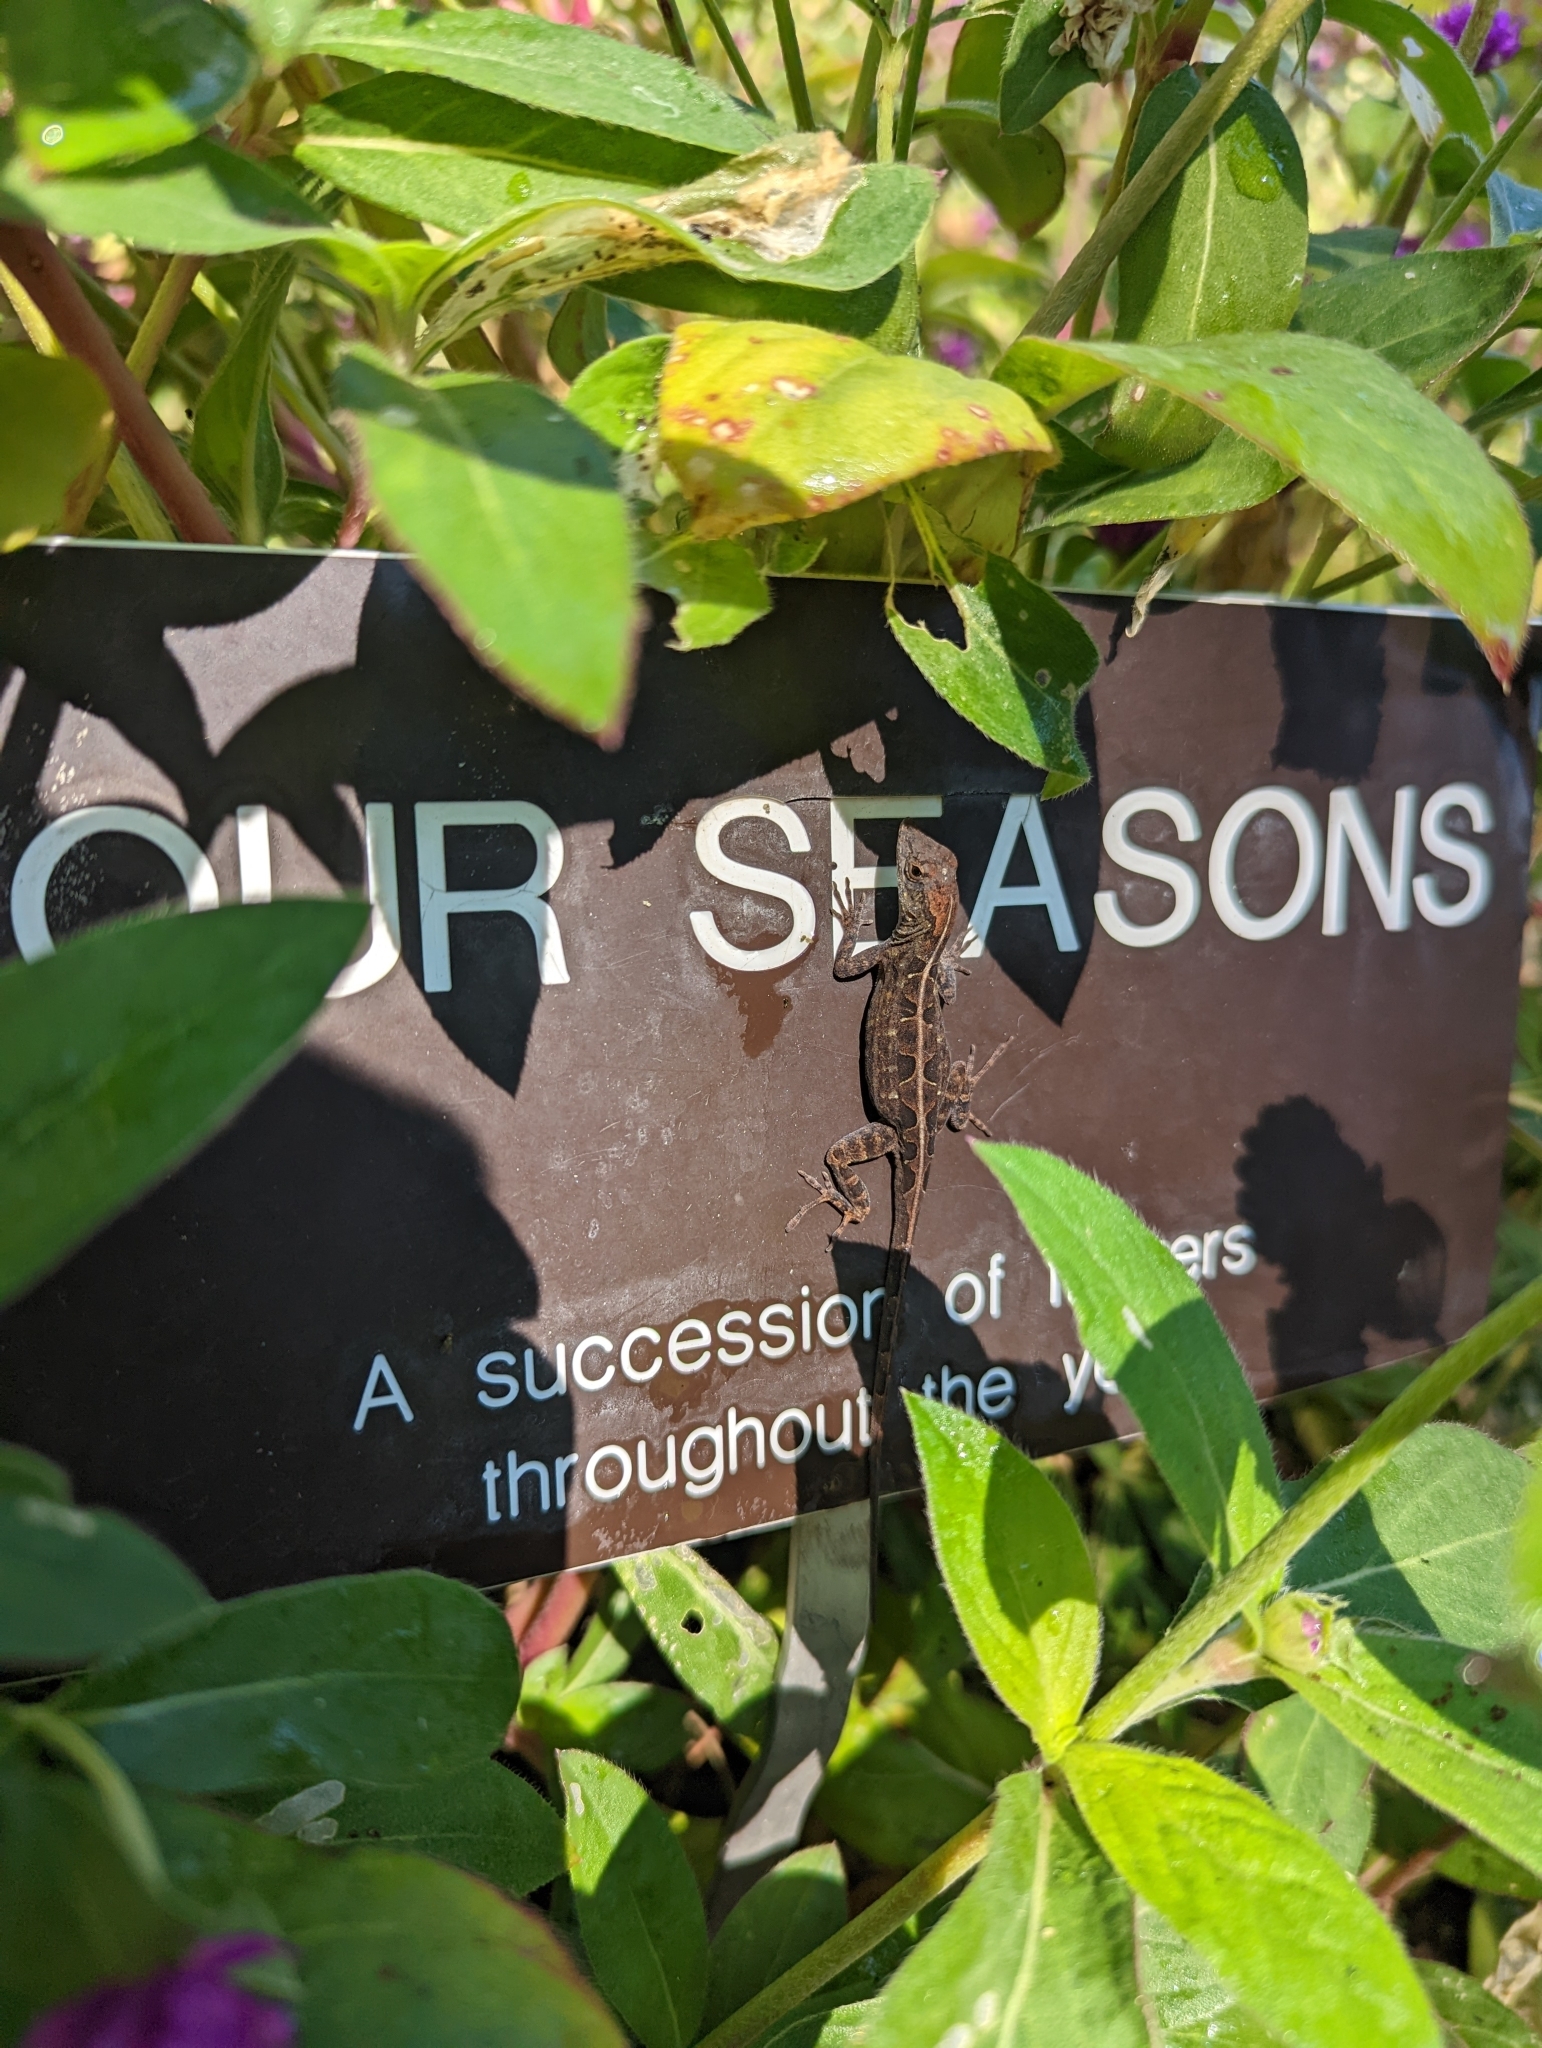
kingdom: Animalia
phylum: Chordata
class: Squamata
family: Dactyloidae
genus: Anolis
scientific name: Anolis sagrei
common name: Brown anole
